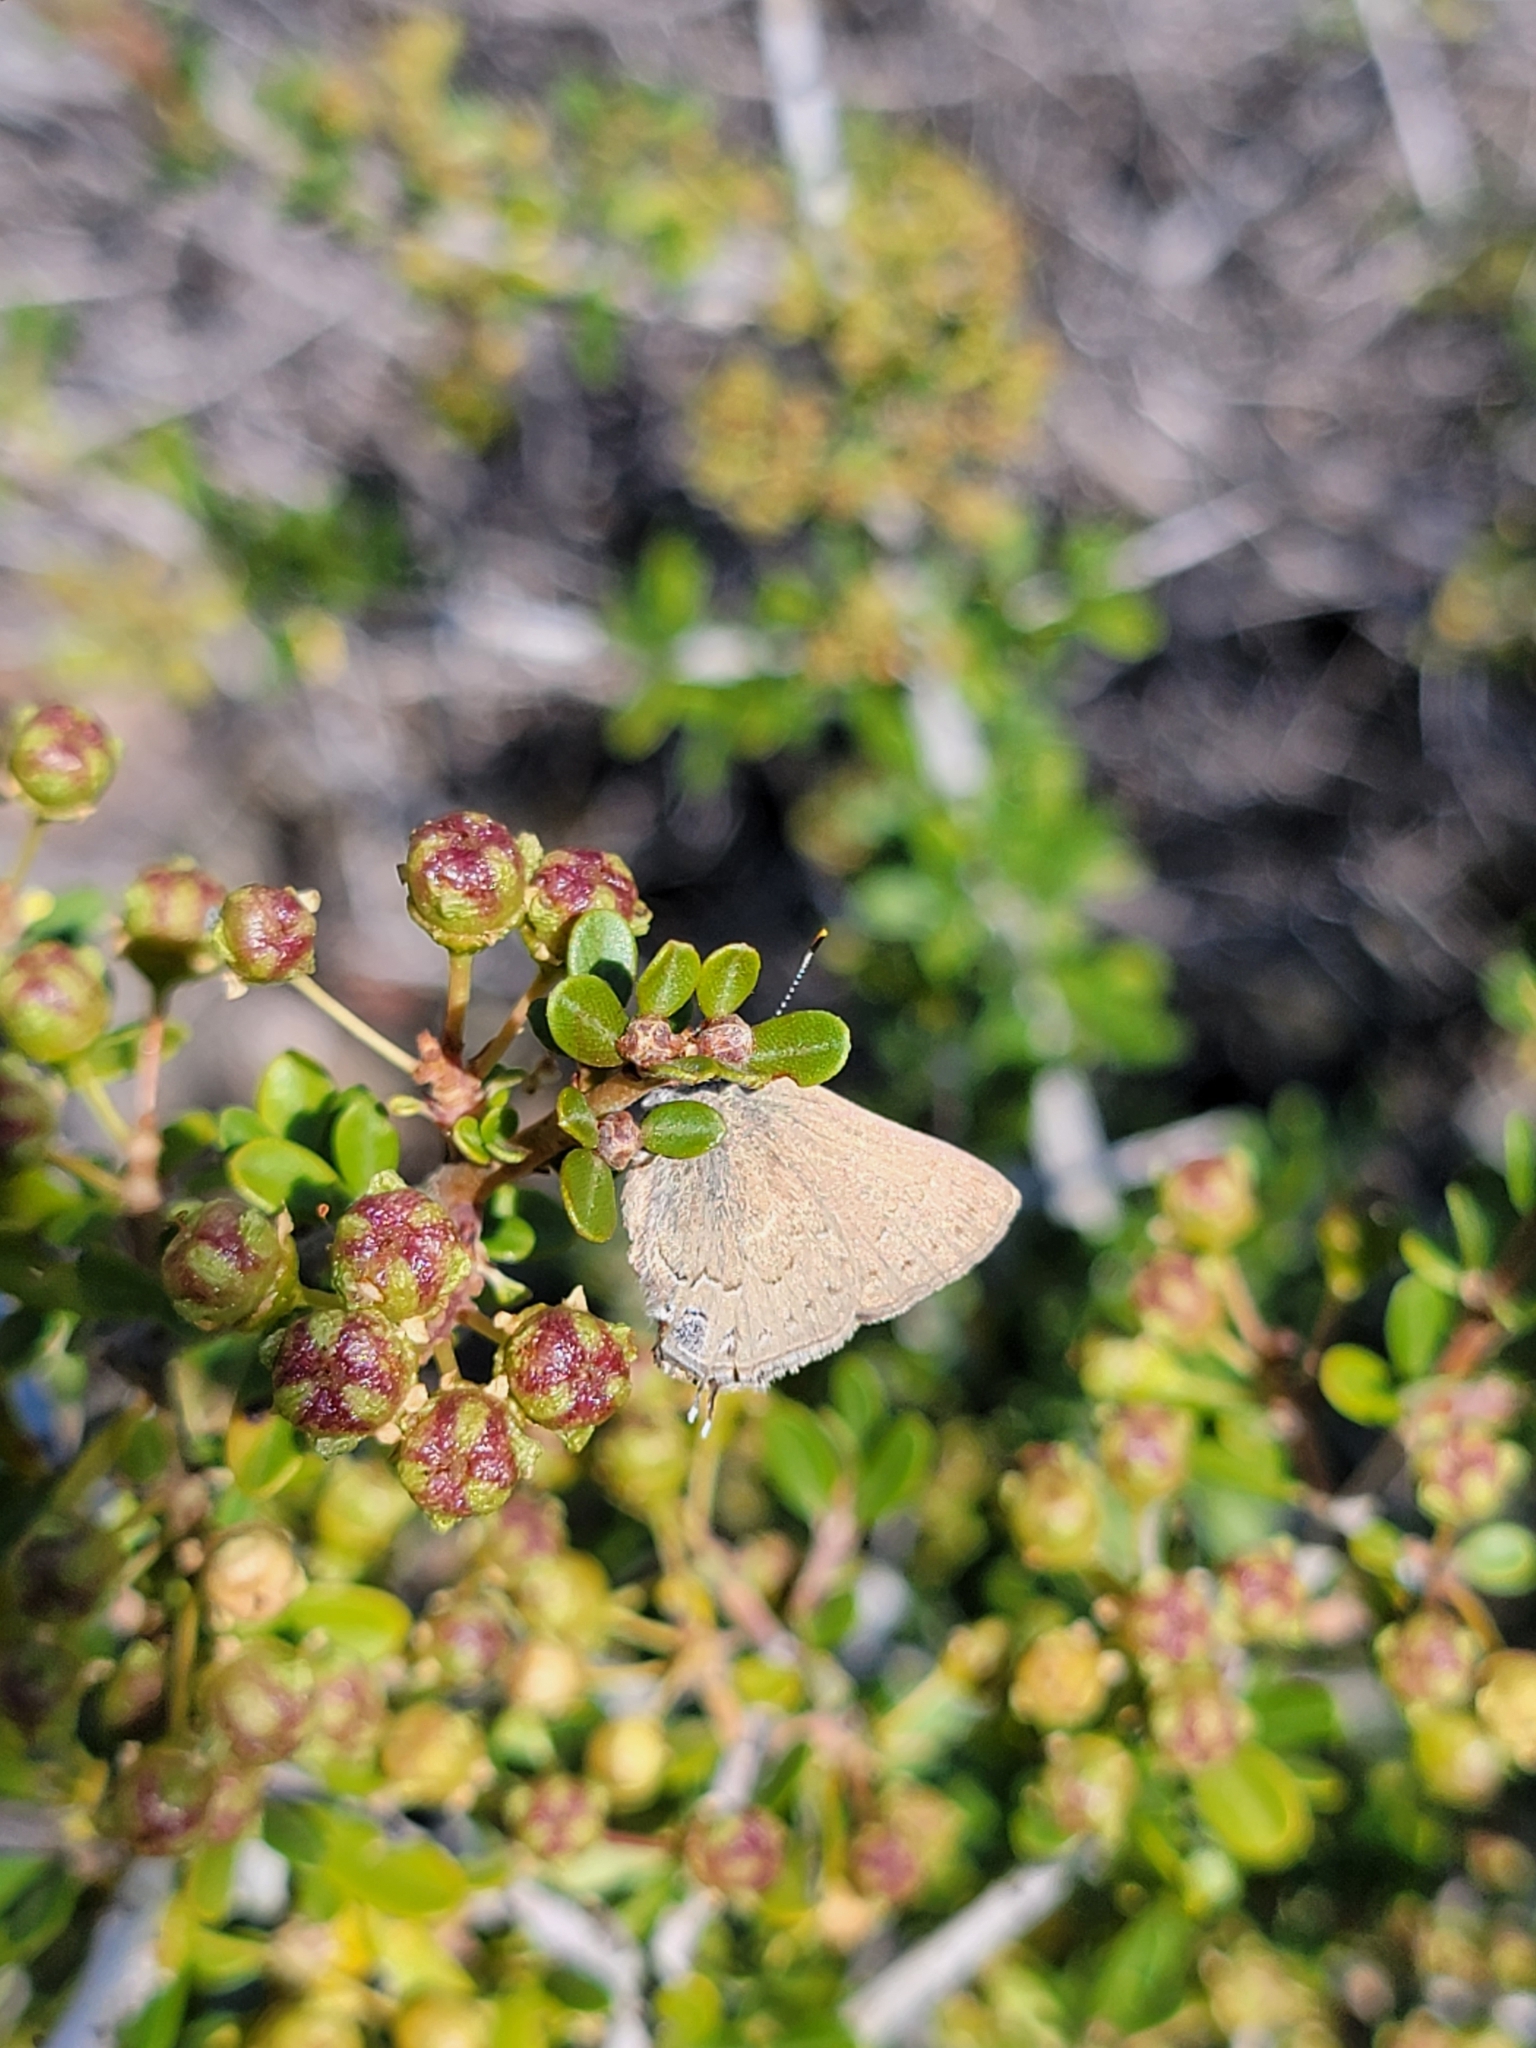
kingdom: Animalia
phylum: Arthropoda
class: Insecta
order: Lepidoptera
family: Lycaenidae
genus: Strymon
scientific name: Strymon saepium
